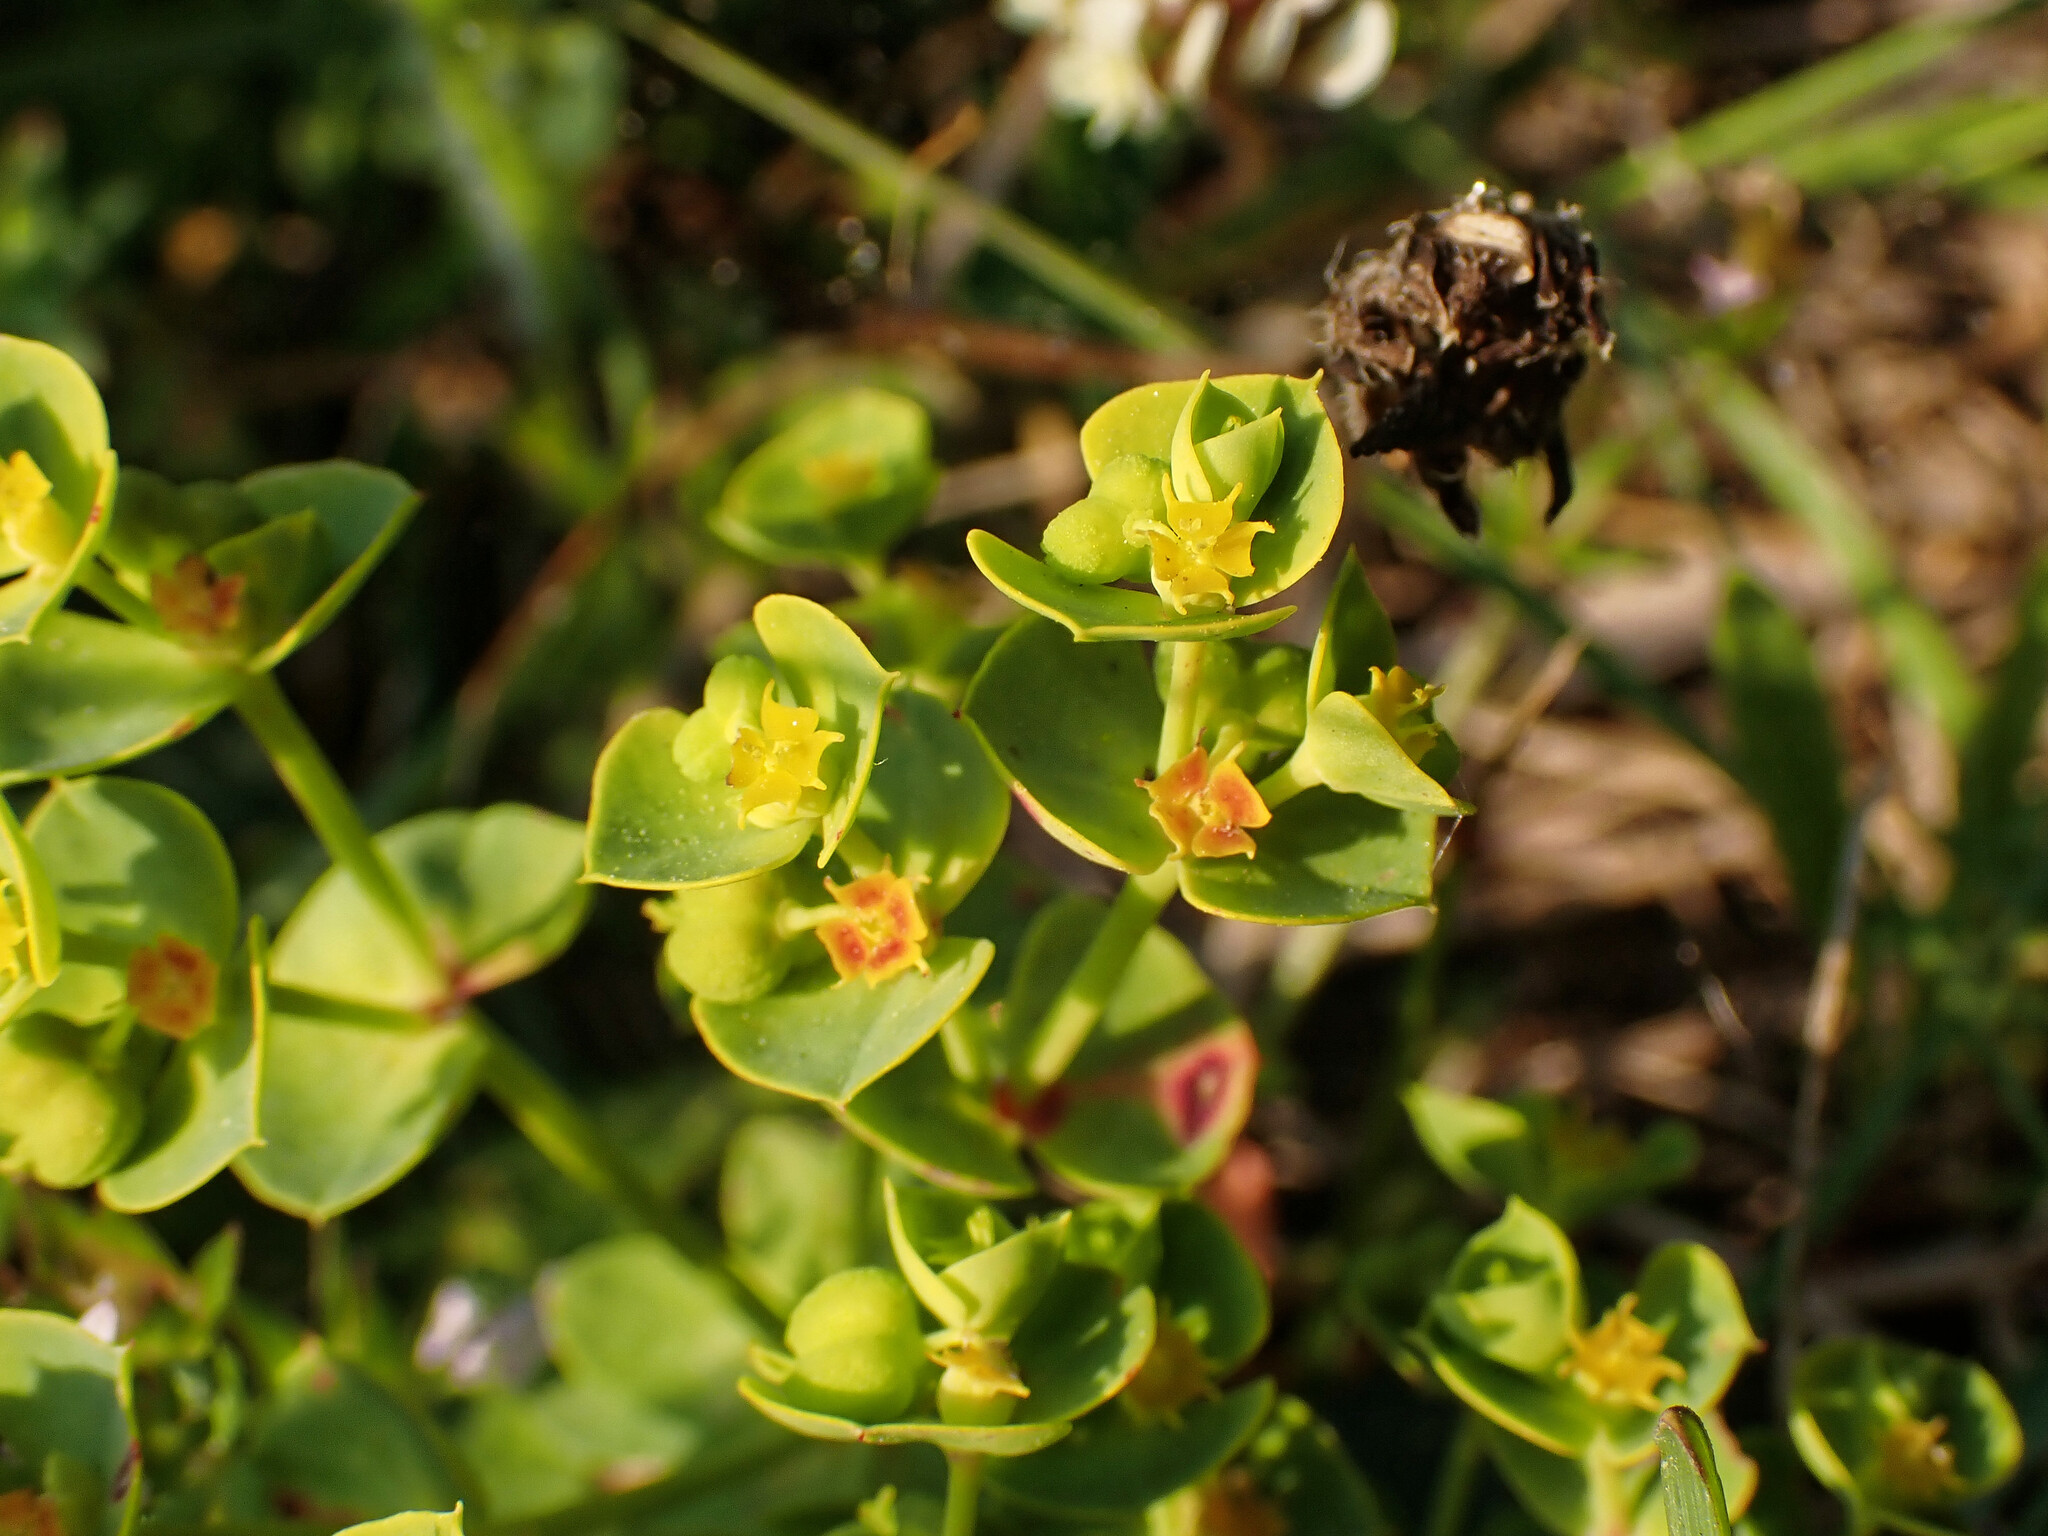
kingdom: Plantae
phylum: Tracheophyta
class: Magnoliopsida
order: Malpighiales
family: Euphorbiaceae
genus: Euphorbia
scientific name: Euphorbia portlandica
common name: Portland spurge
